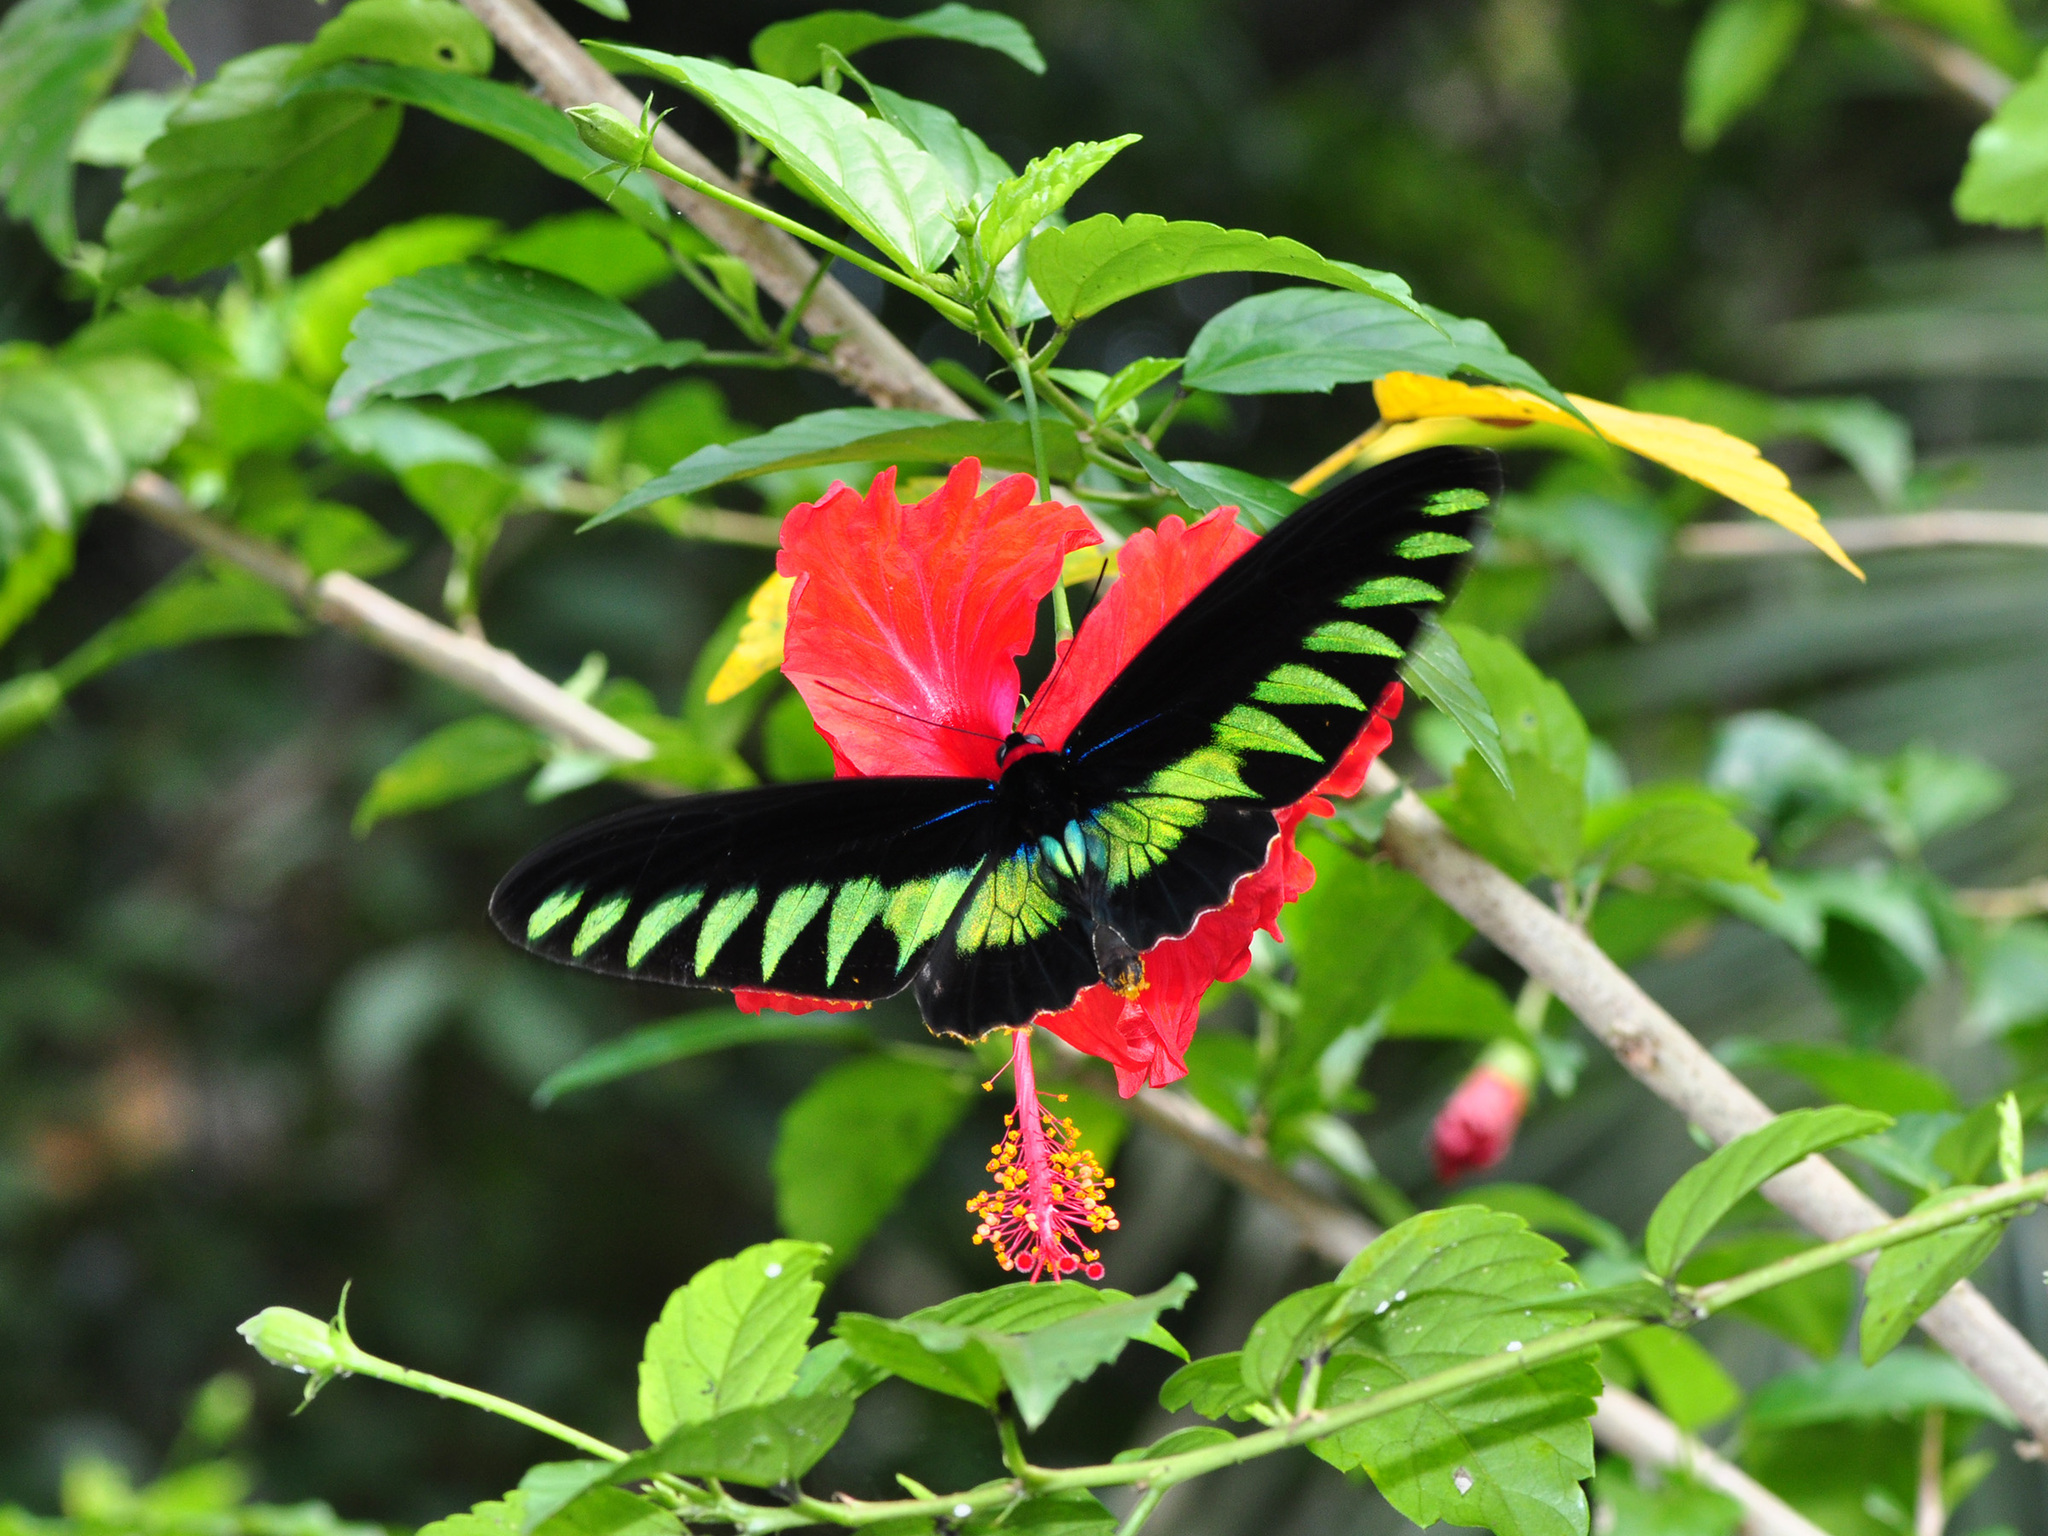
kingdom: Animalia
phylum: Arthropoda
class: Insecta
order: Lepidoptera
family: Papilionidae
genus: Trogonoptera
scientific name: Trogonoptera brookiana
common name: Raja brooke's birdwing
